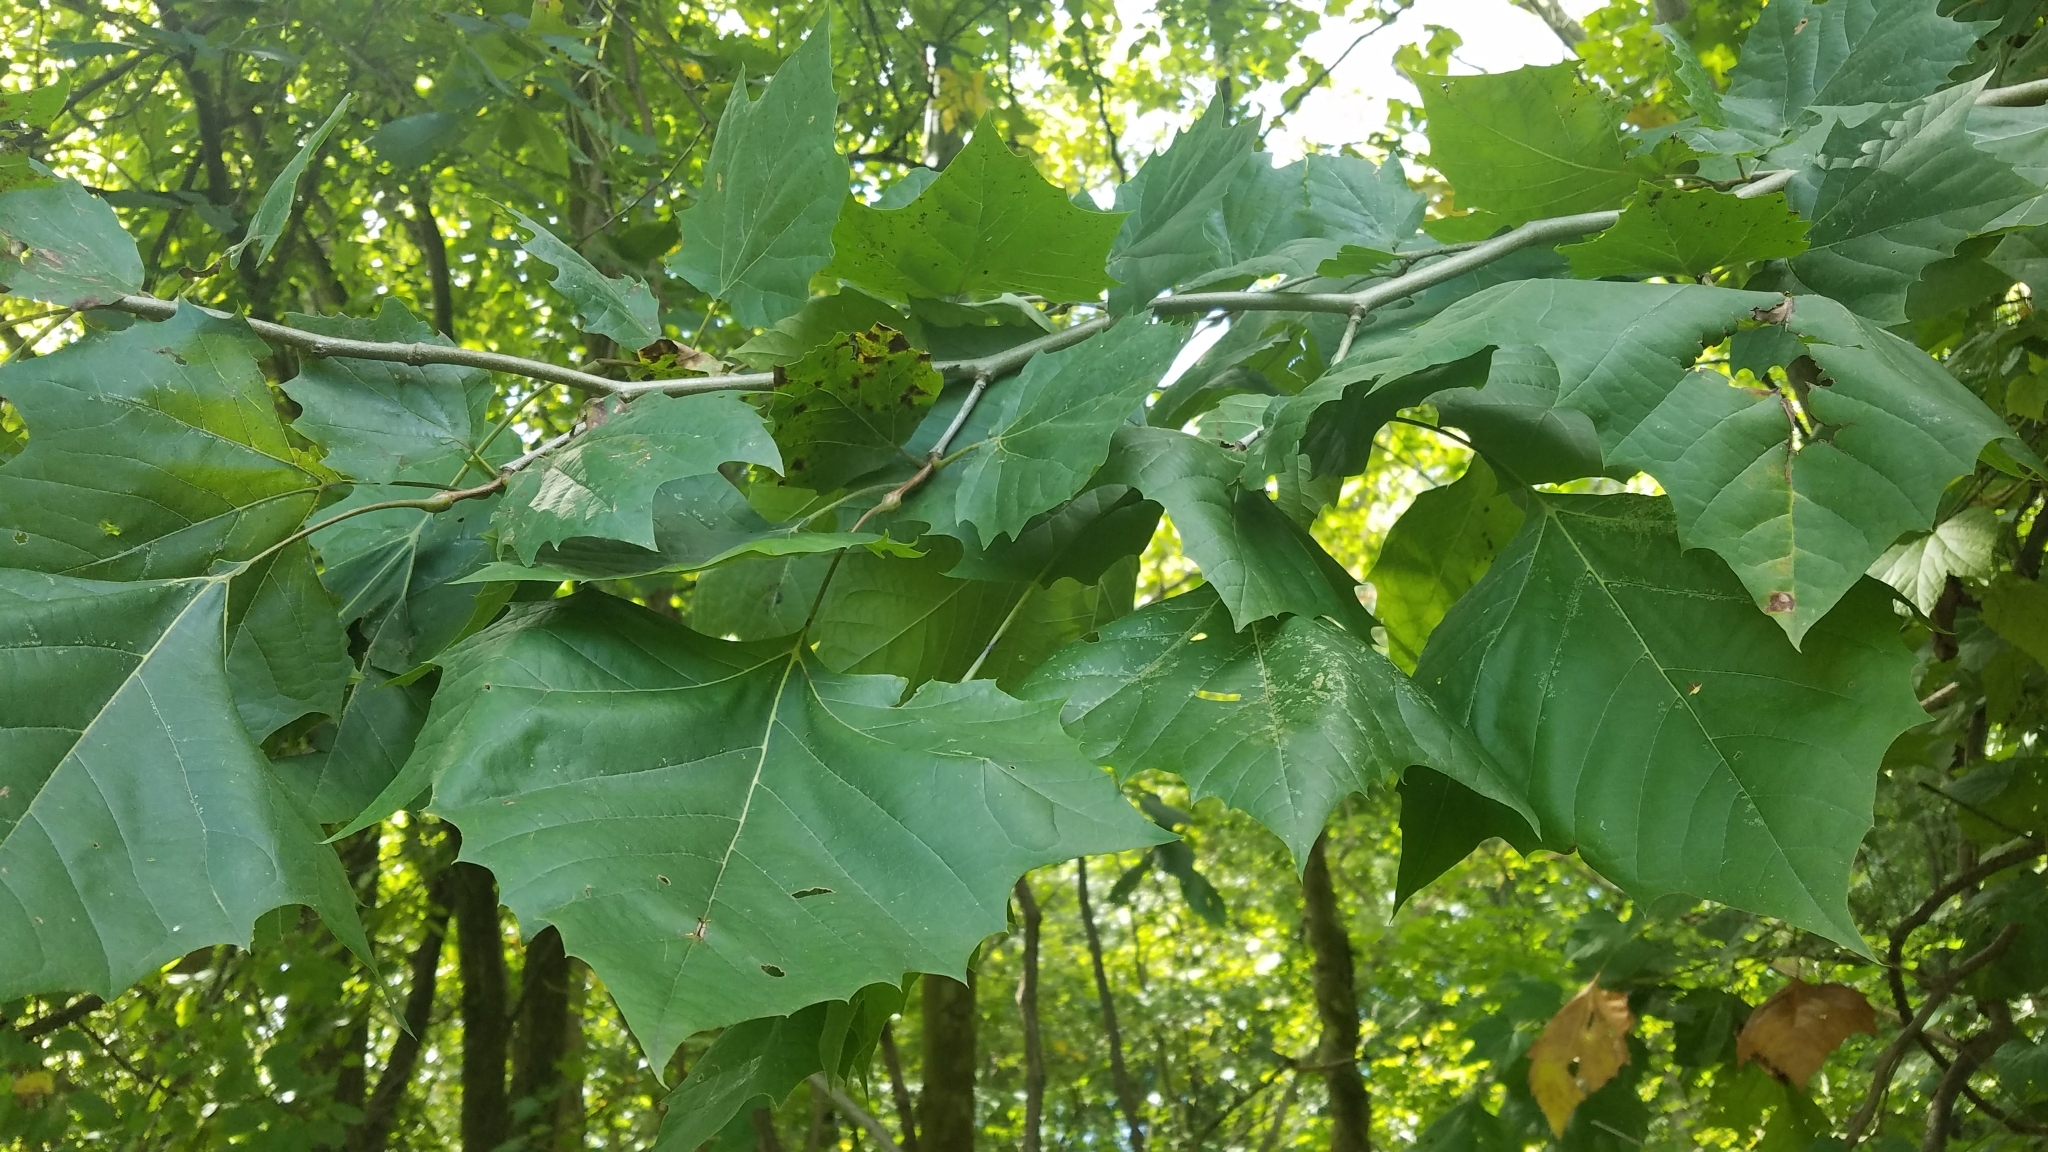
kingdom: Plantae
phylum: Tracheophyta
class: Magnoliopsida
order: Proteales
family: Platanaceae
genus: Platanus
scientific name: Platanus occidentalis
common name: American sycamore
